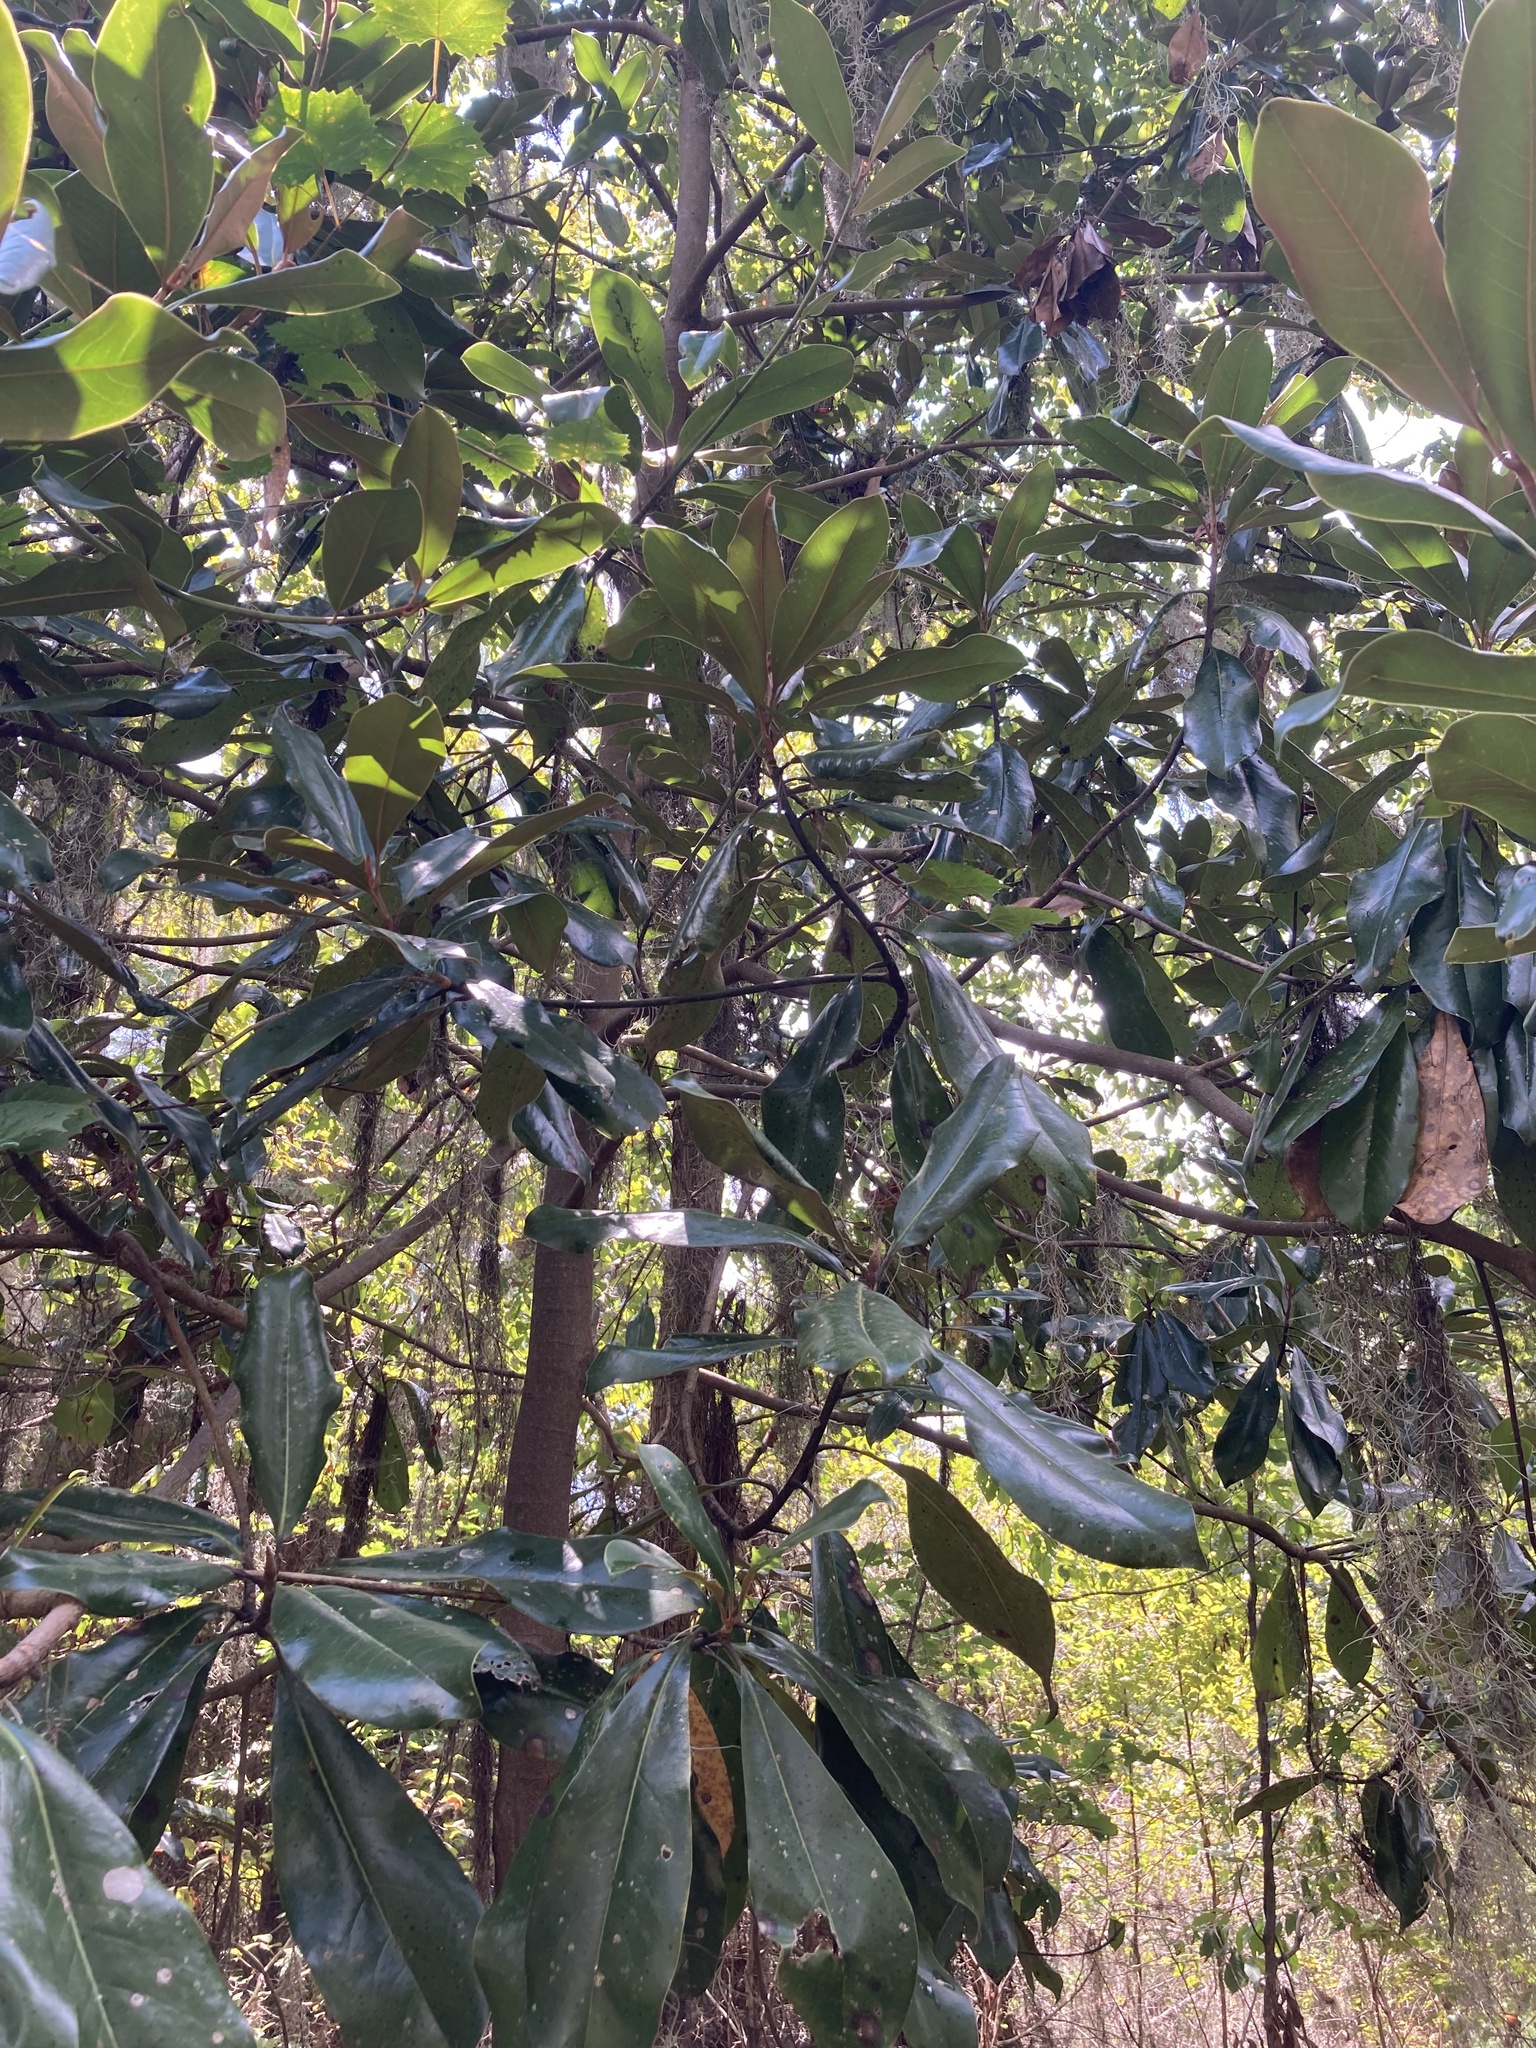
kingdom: Plantae
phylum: Tracheophyta
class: Magnoliopsida
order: Magnoliales
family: Magnoliaceae
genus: Magnolia
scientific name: Magnolia grandiflora
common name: Southern magnolia
